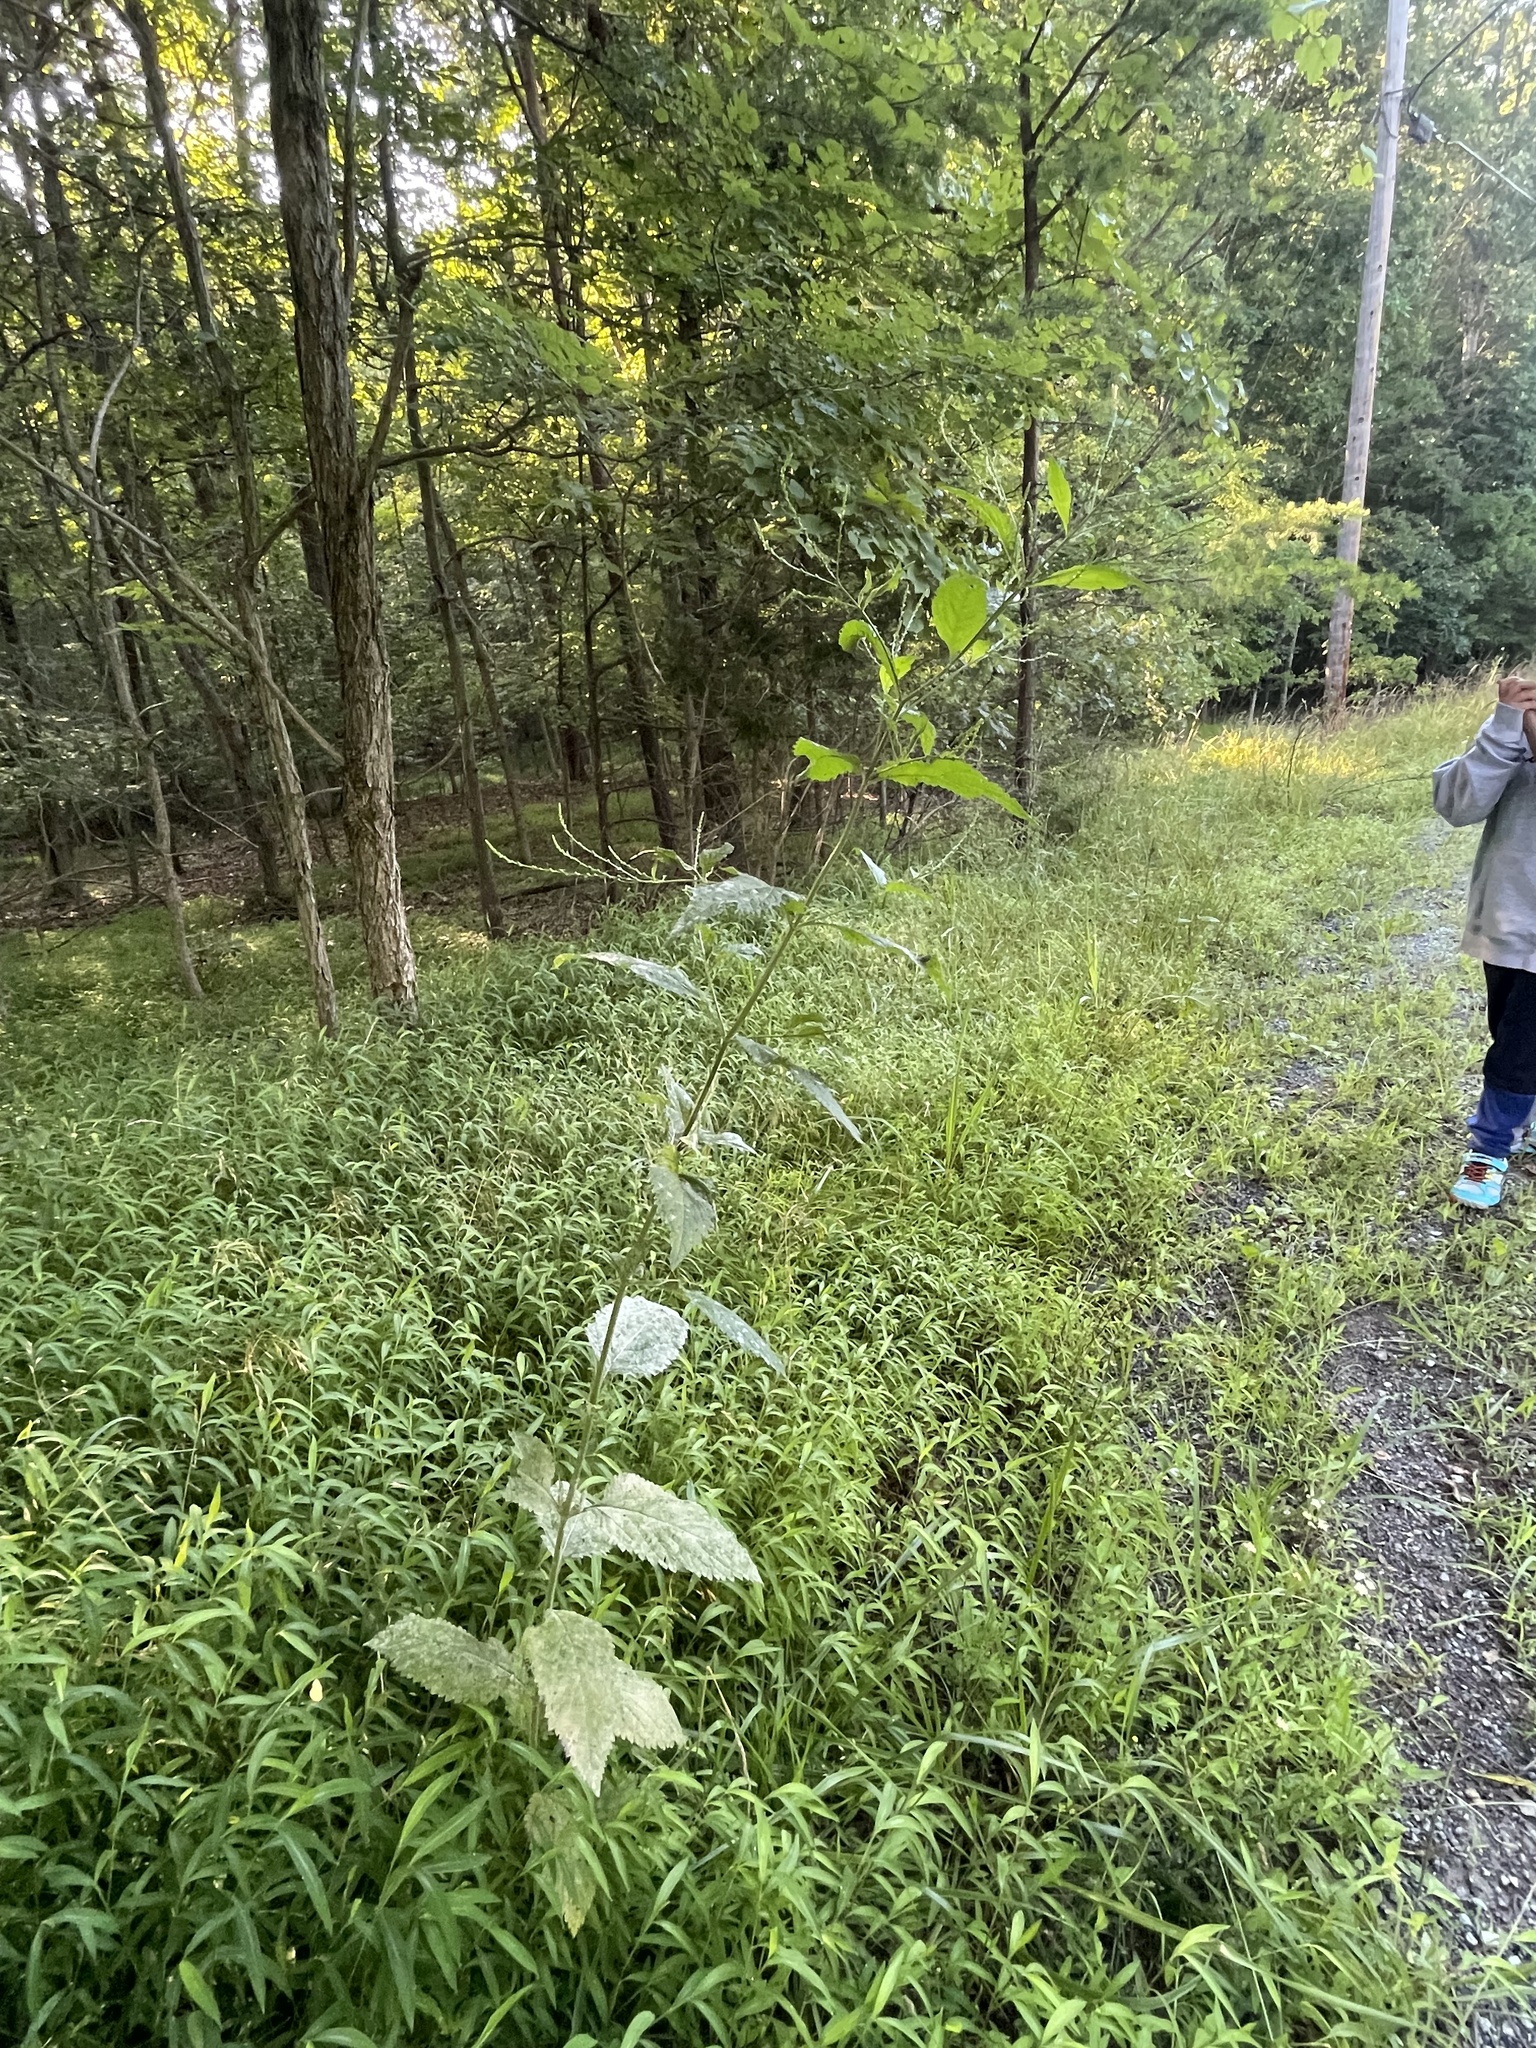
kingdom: Plantae
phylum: Tracheophyta
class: Magnoliopsida
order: Lamiales
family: Verbenaceae
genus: Verbena
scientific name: Verbena urticifolia
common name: Nettle-leaved vervain
